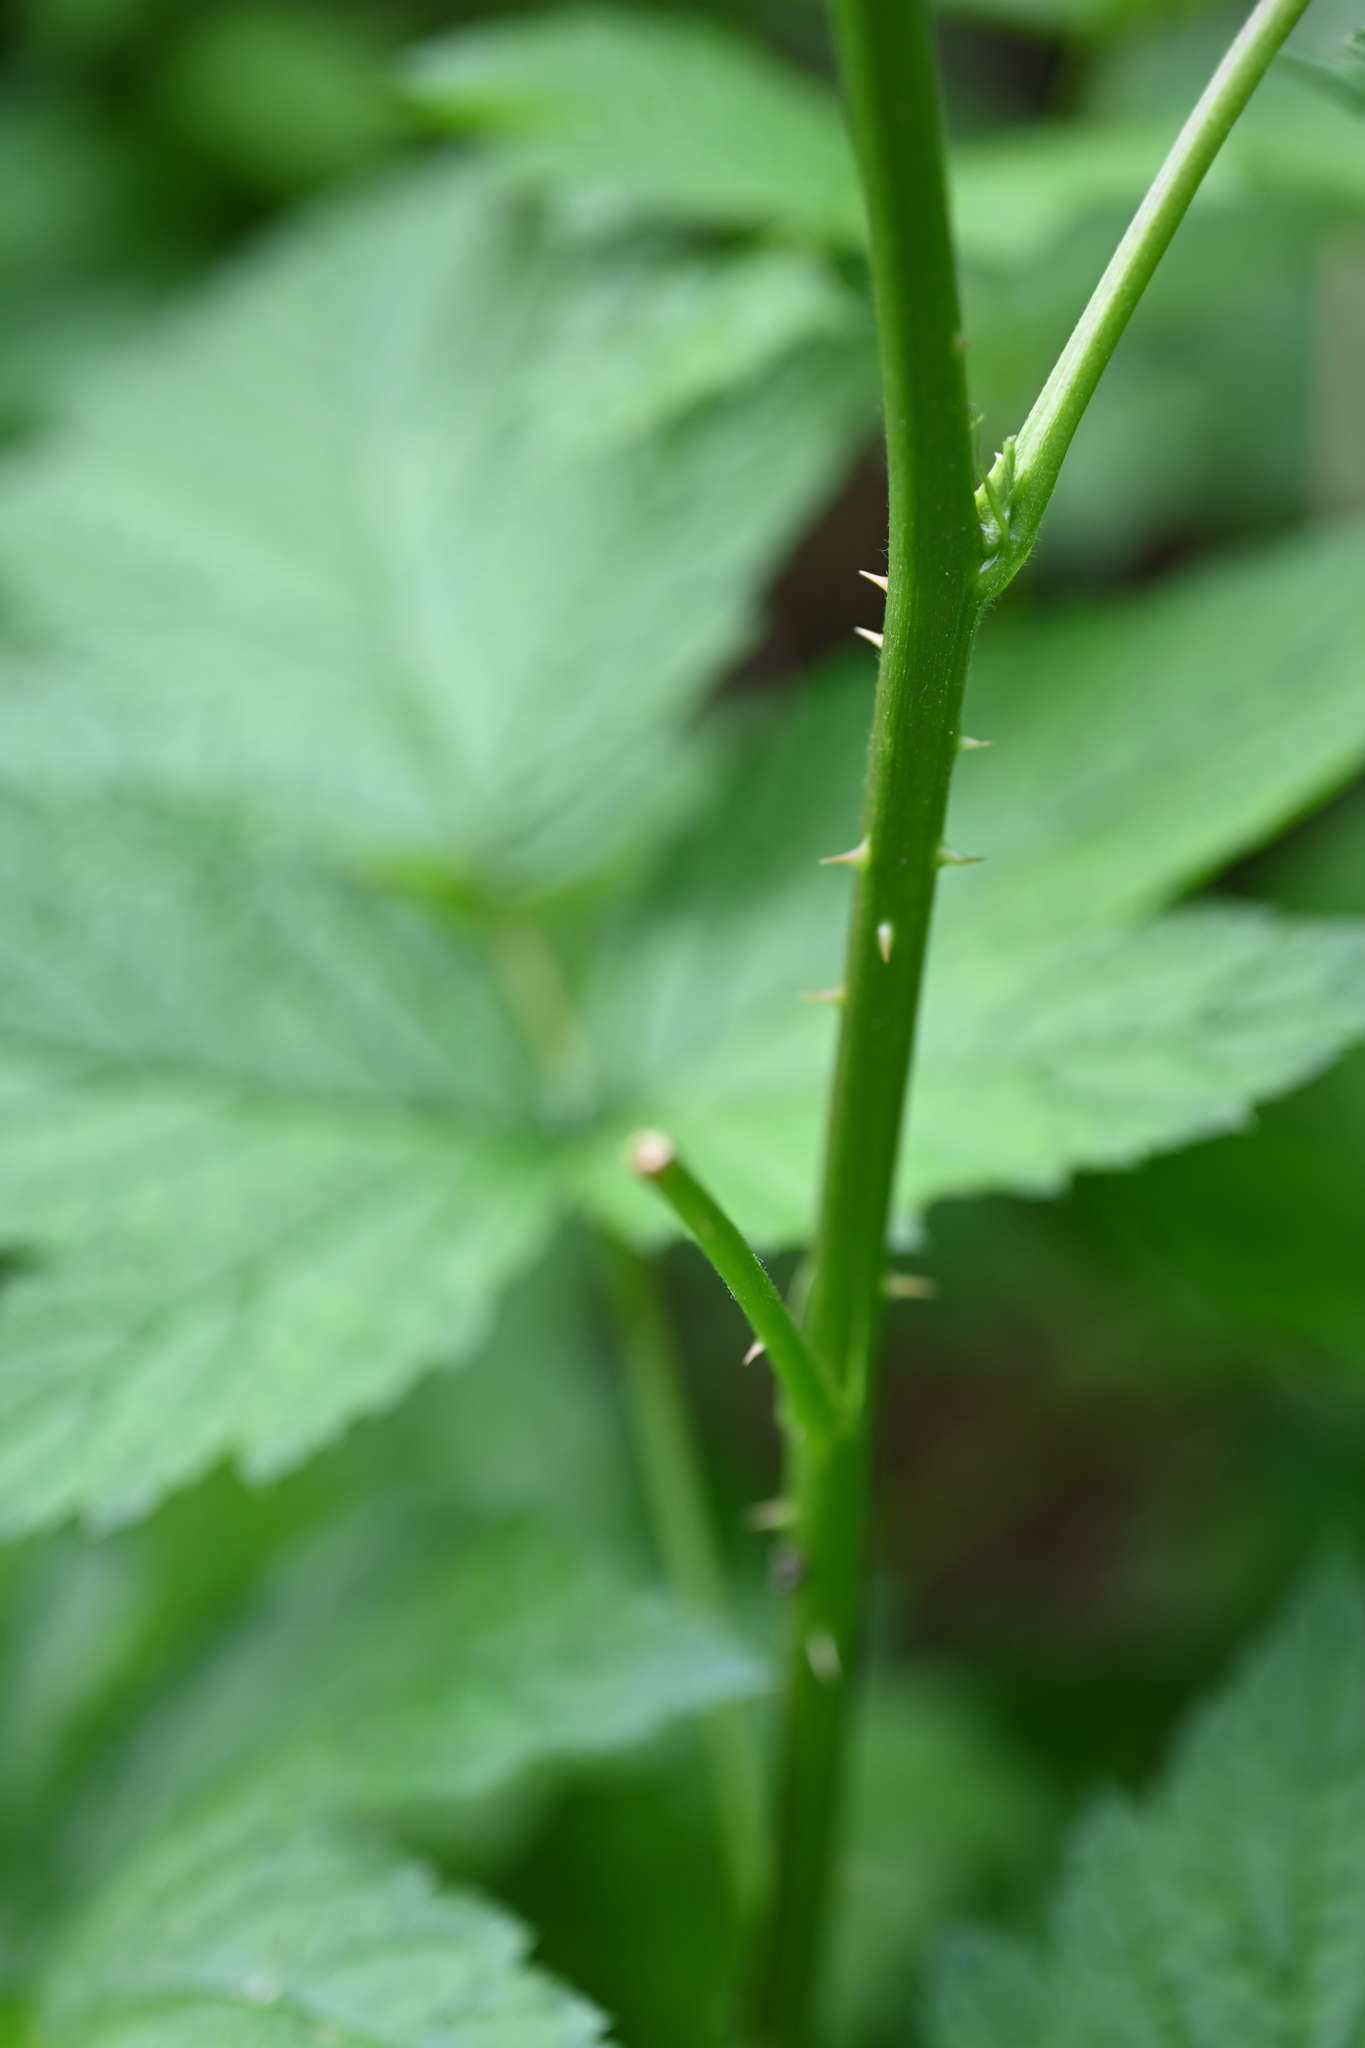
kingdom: Plantae
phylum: Tracheophyta
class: Magnoliopsida
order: Rosales
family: Rosaceae
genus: Rubus
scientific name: Rubus spectabilis
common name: Salmonberry
